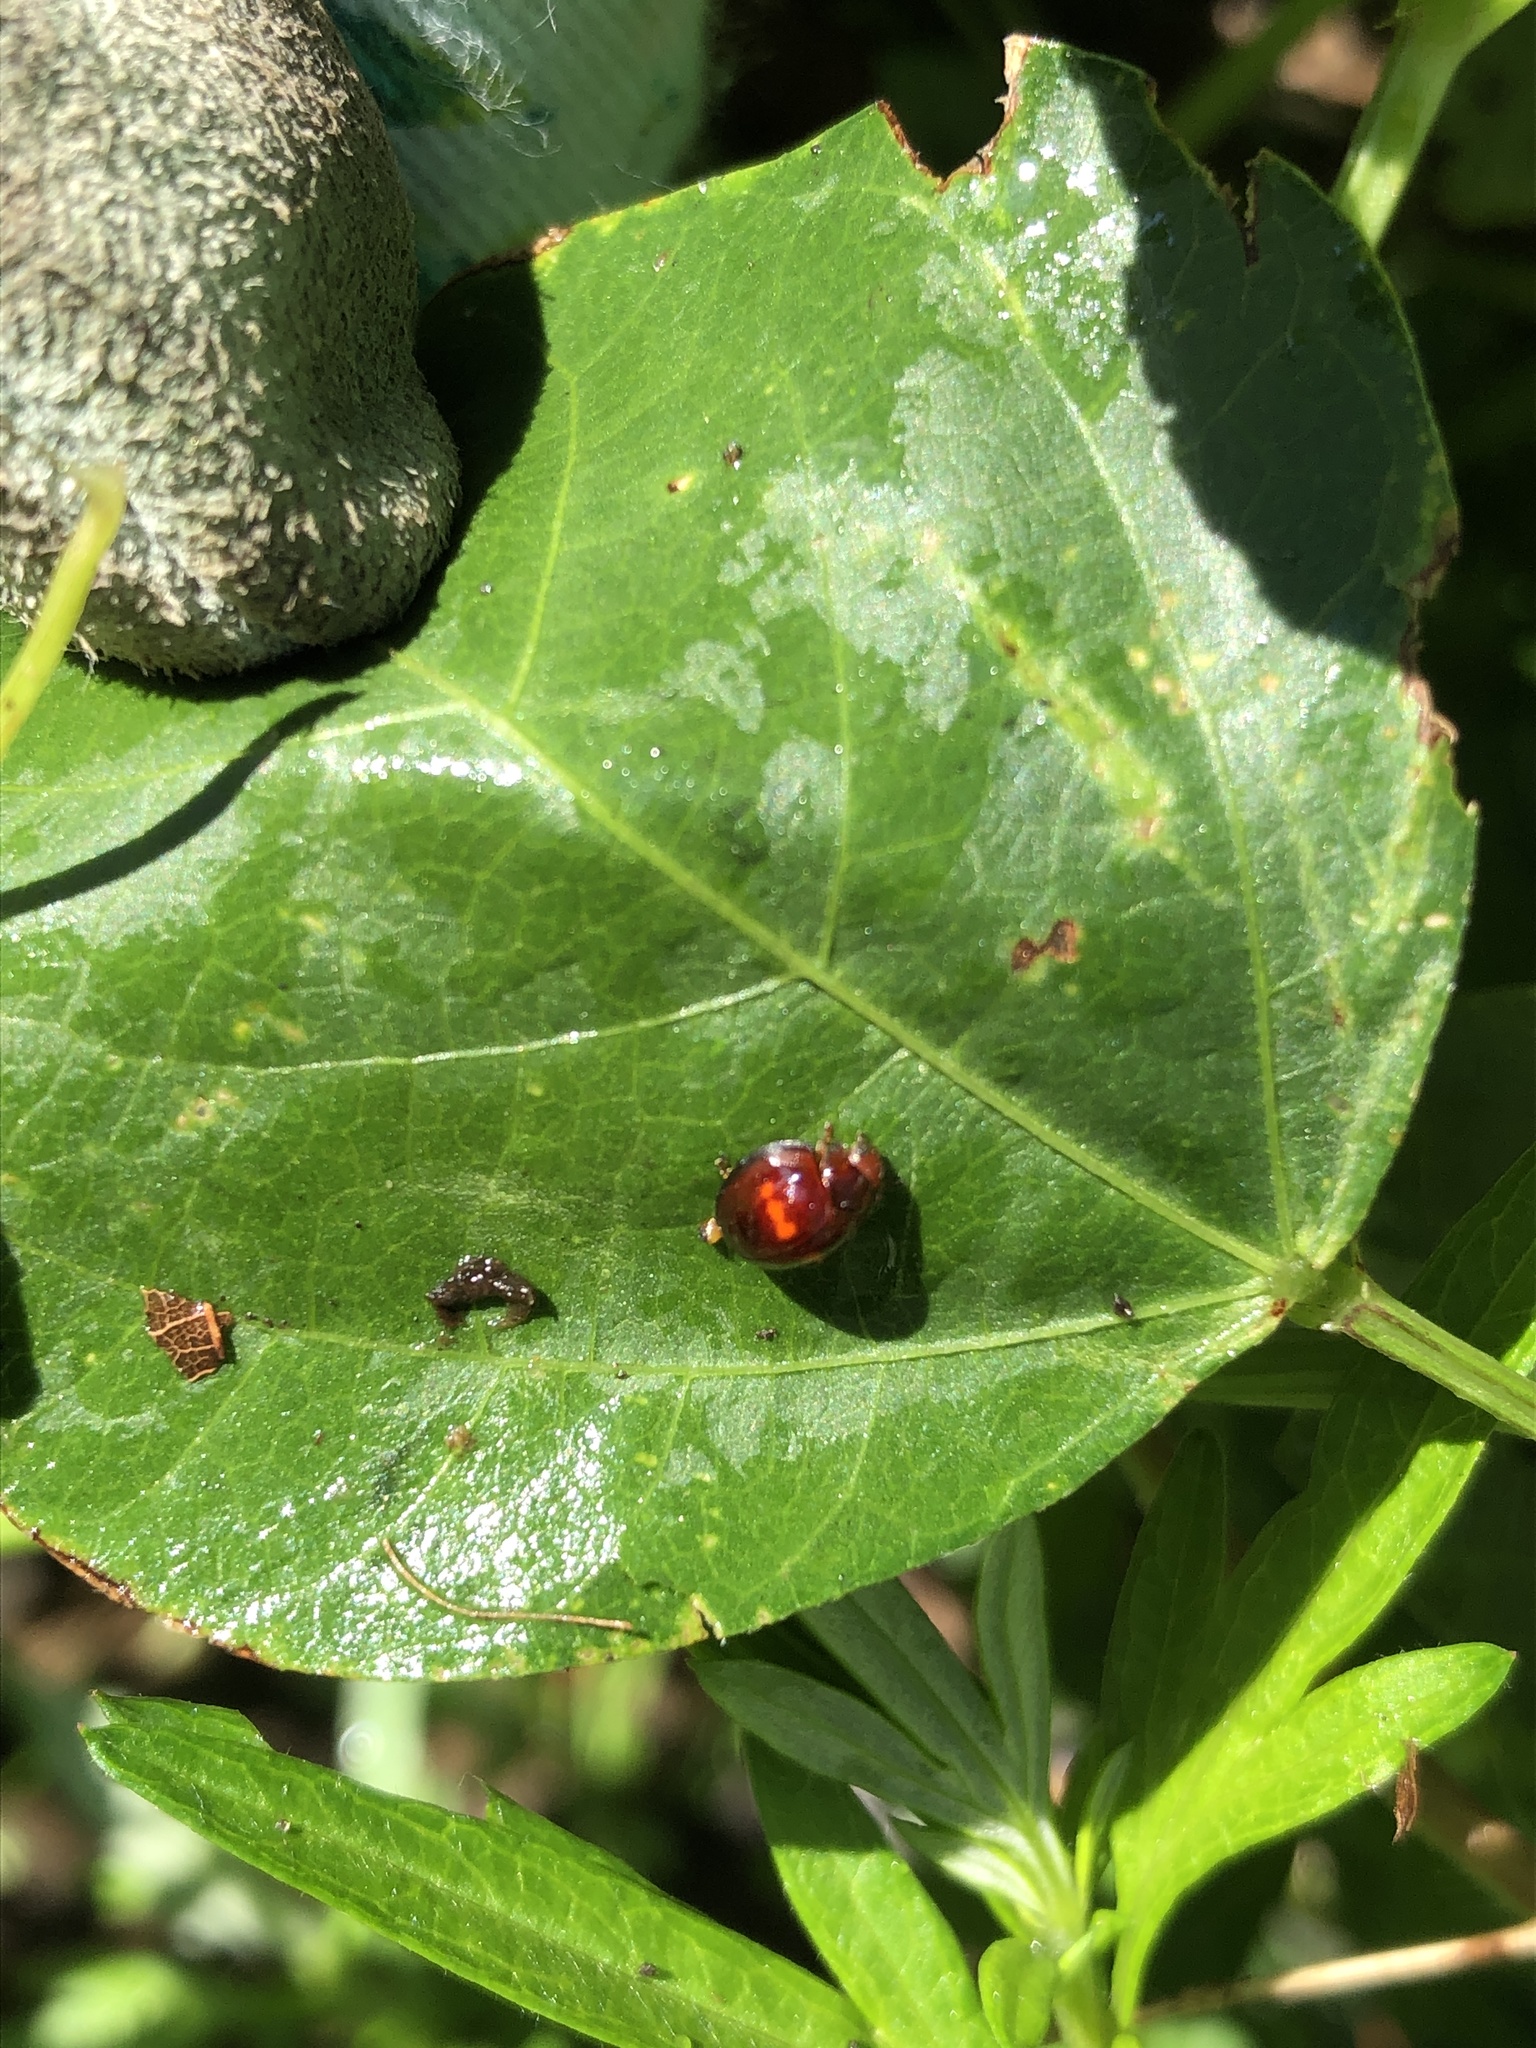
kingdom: Animalia
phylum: Arthropoda
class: Insecta
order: Coleoptera
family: Coccinellidae
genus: Chilocorus
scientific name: Chilocorus bipustulatus
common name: Heather ladybird
